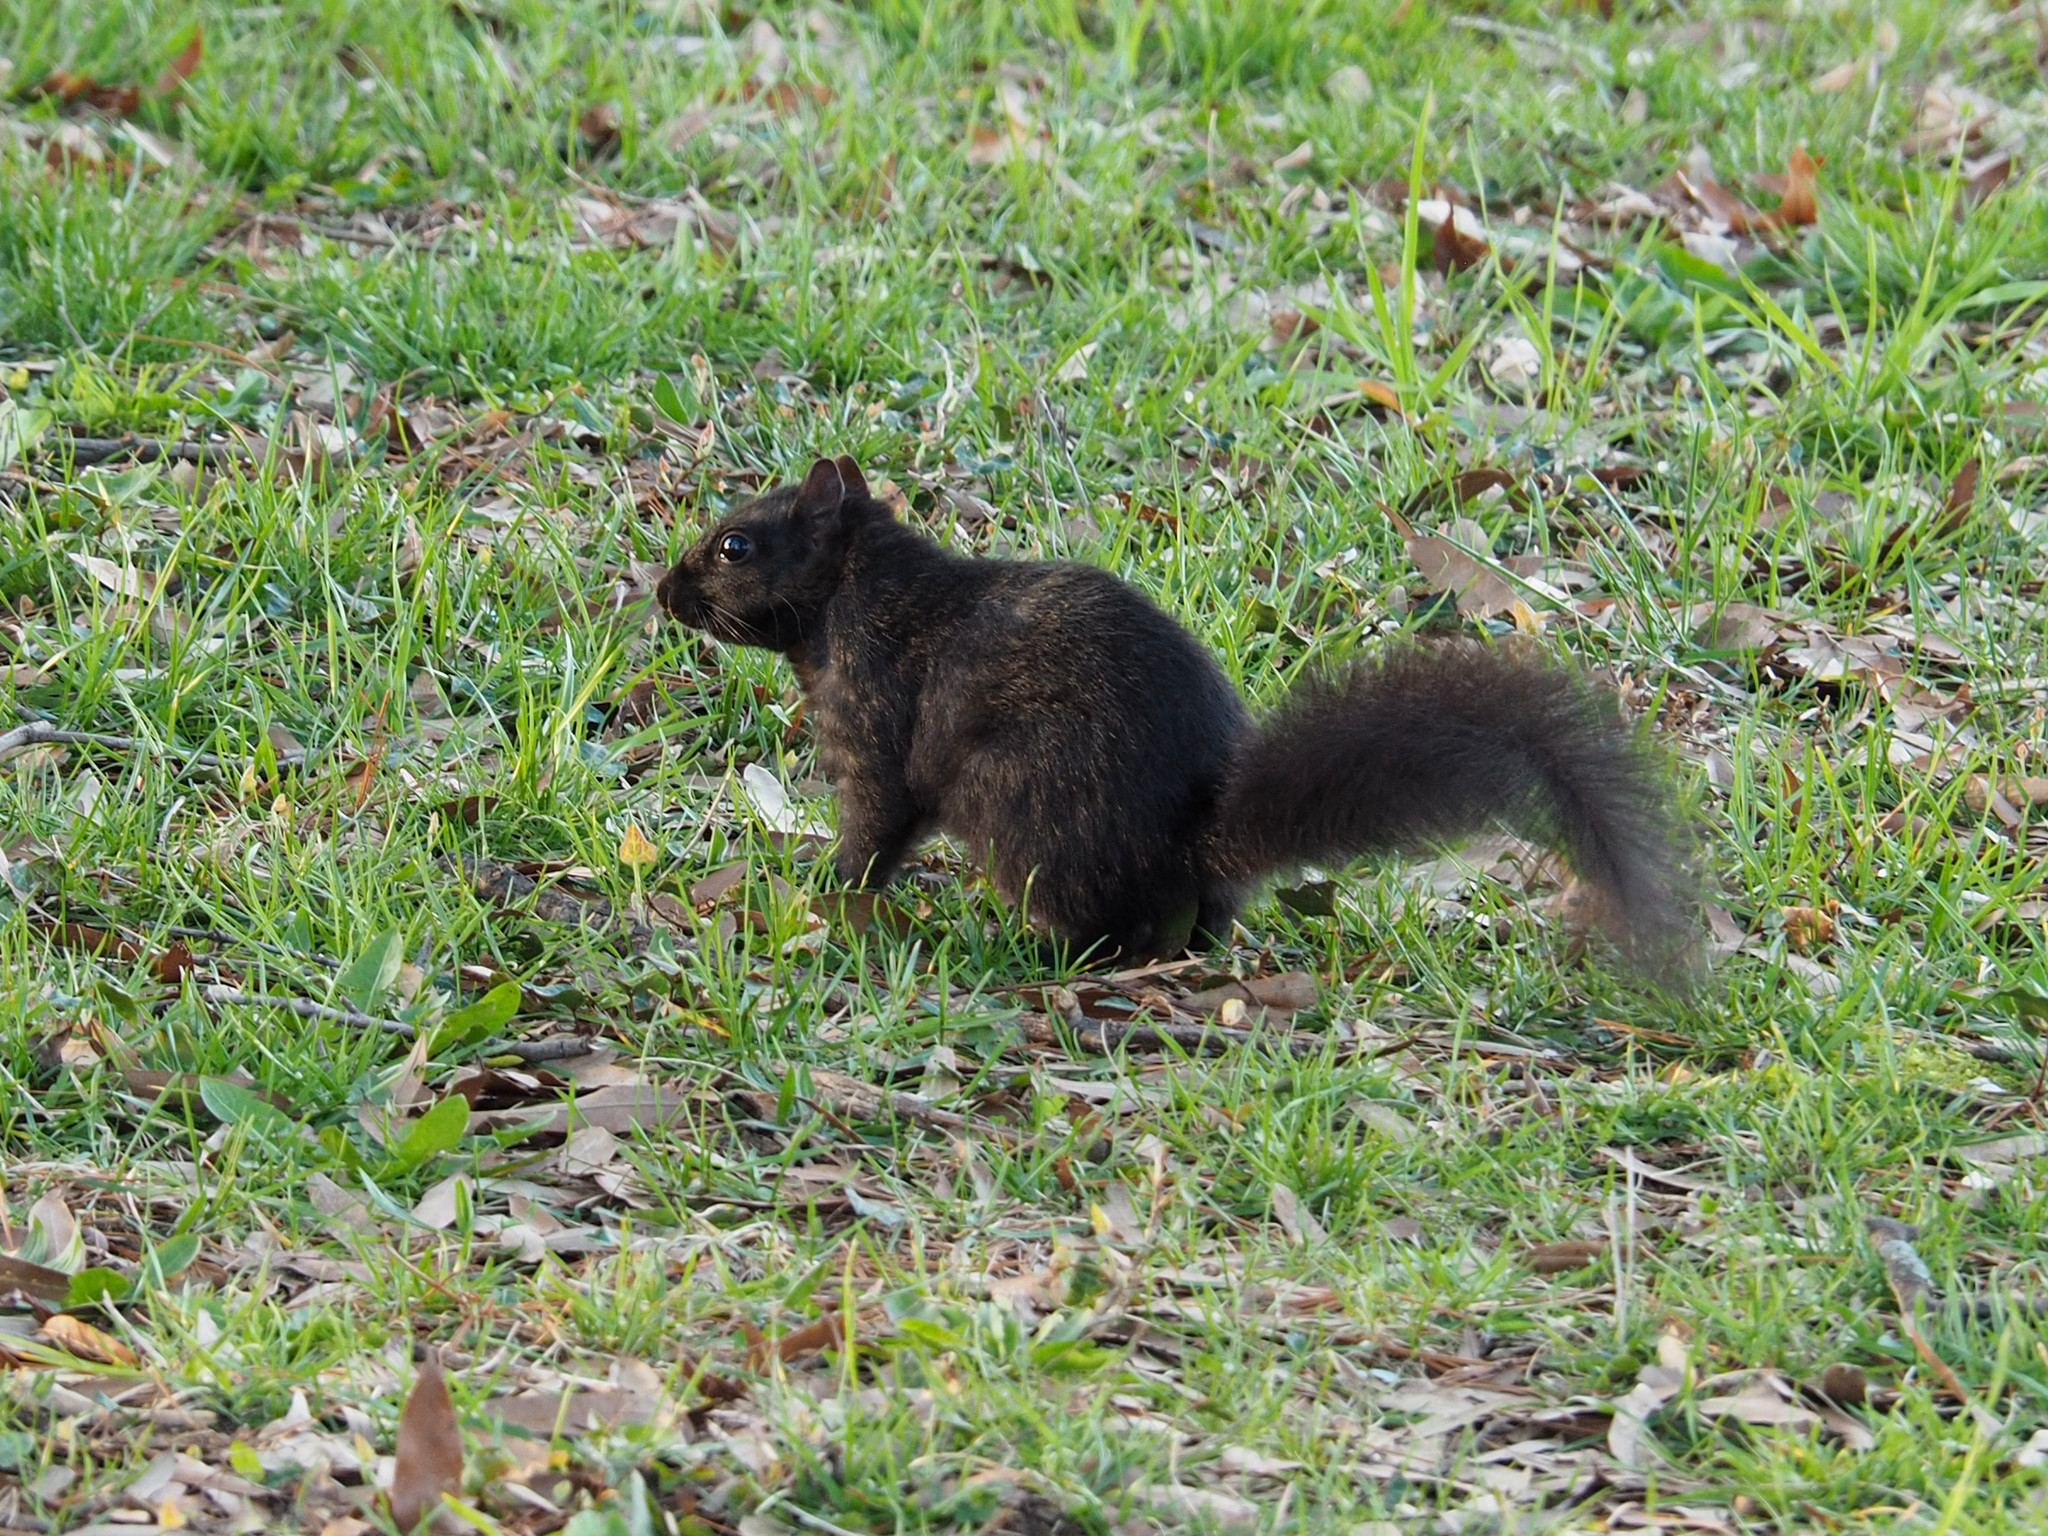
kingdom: Animalia
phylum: Chordata
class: Mammalia
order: Rodentia
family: Sciuridae
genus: Sciurus
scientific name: Sciurus carolinensis
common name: Eastern gray squirrel
